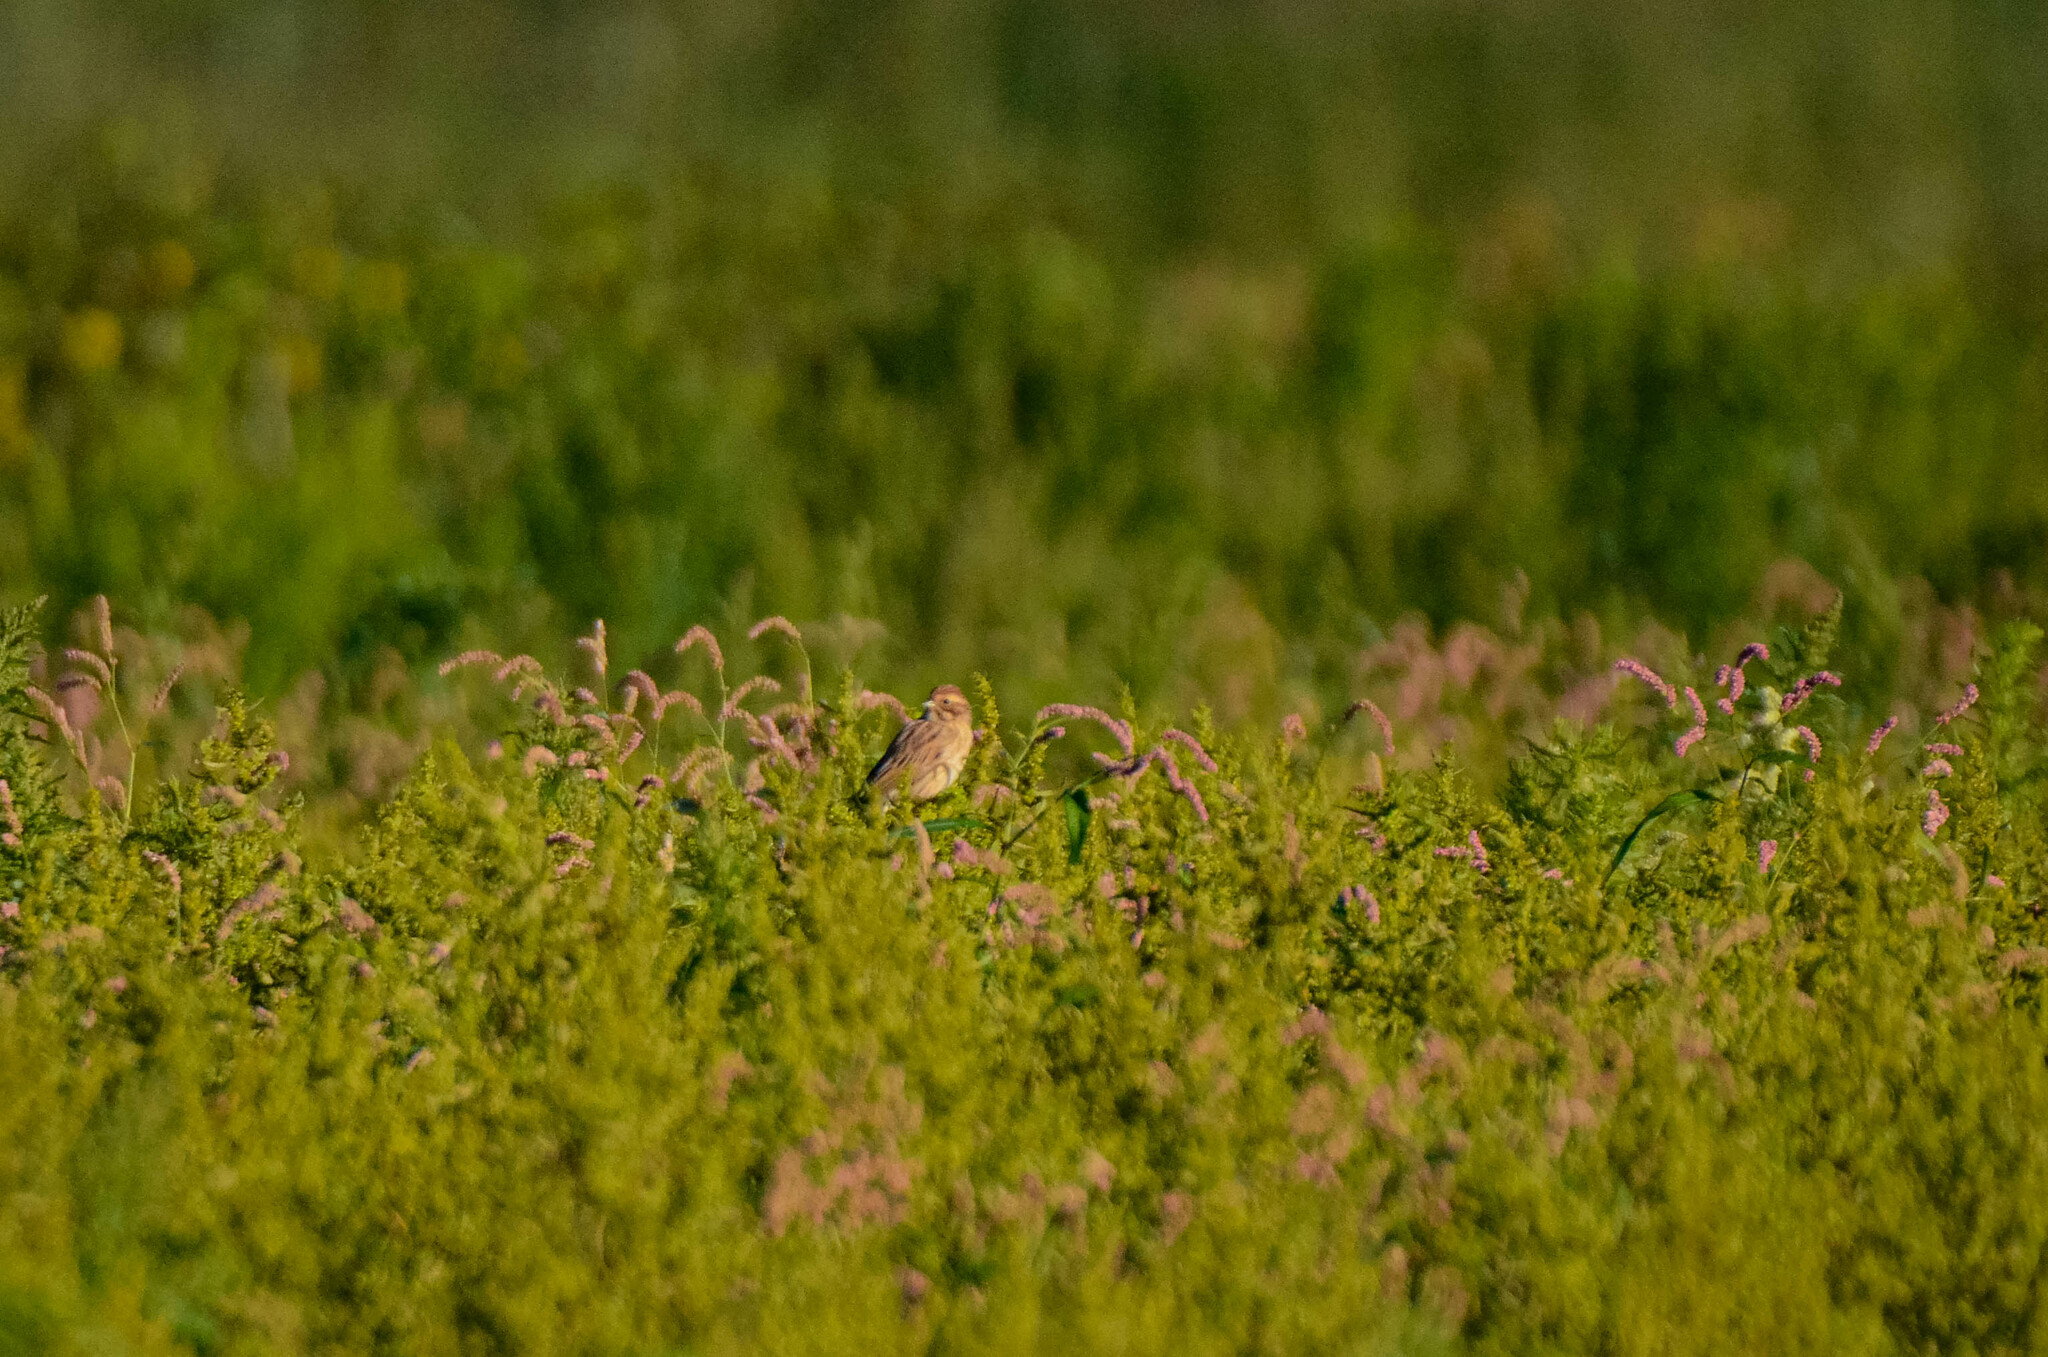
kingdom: Animalia
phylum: Chordata
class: Aves
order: Passeriformes
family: Emberizidae
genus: Emberiza
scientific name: Emberiza schoeniclus
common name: Reed bunting
